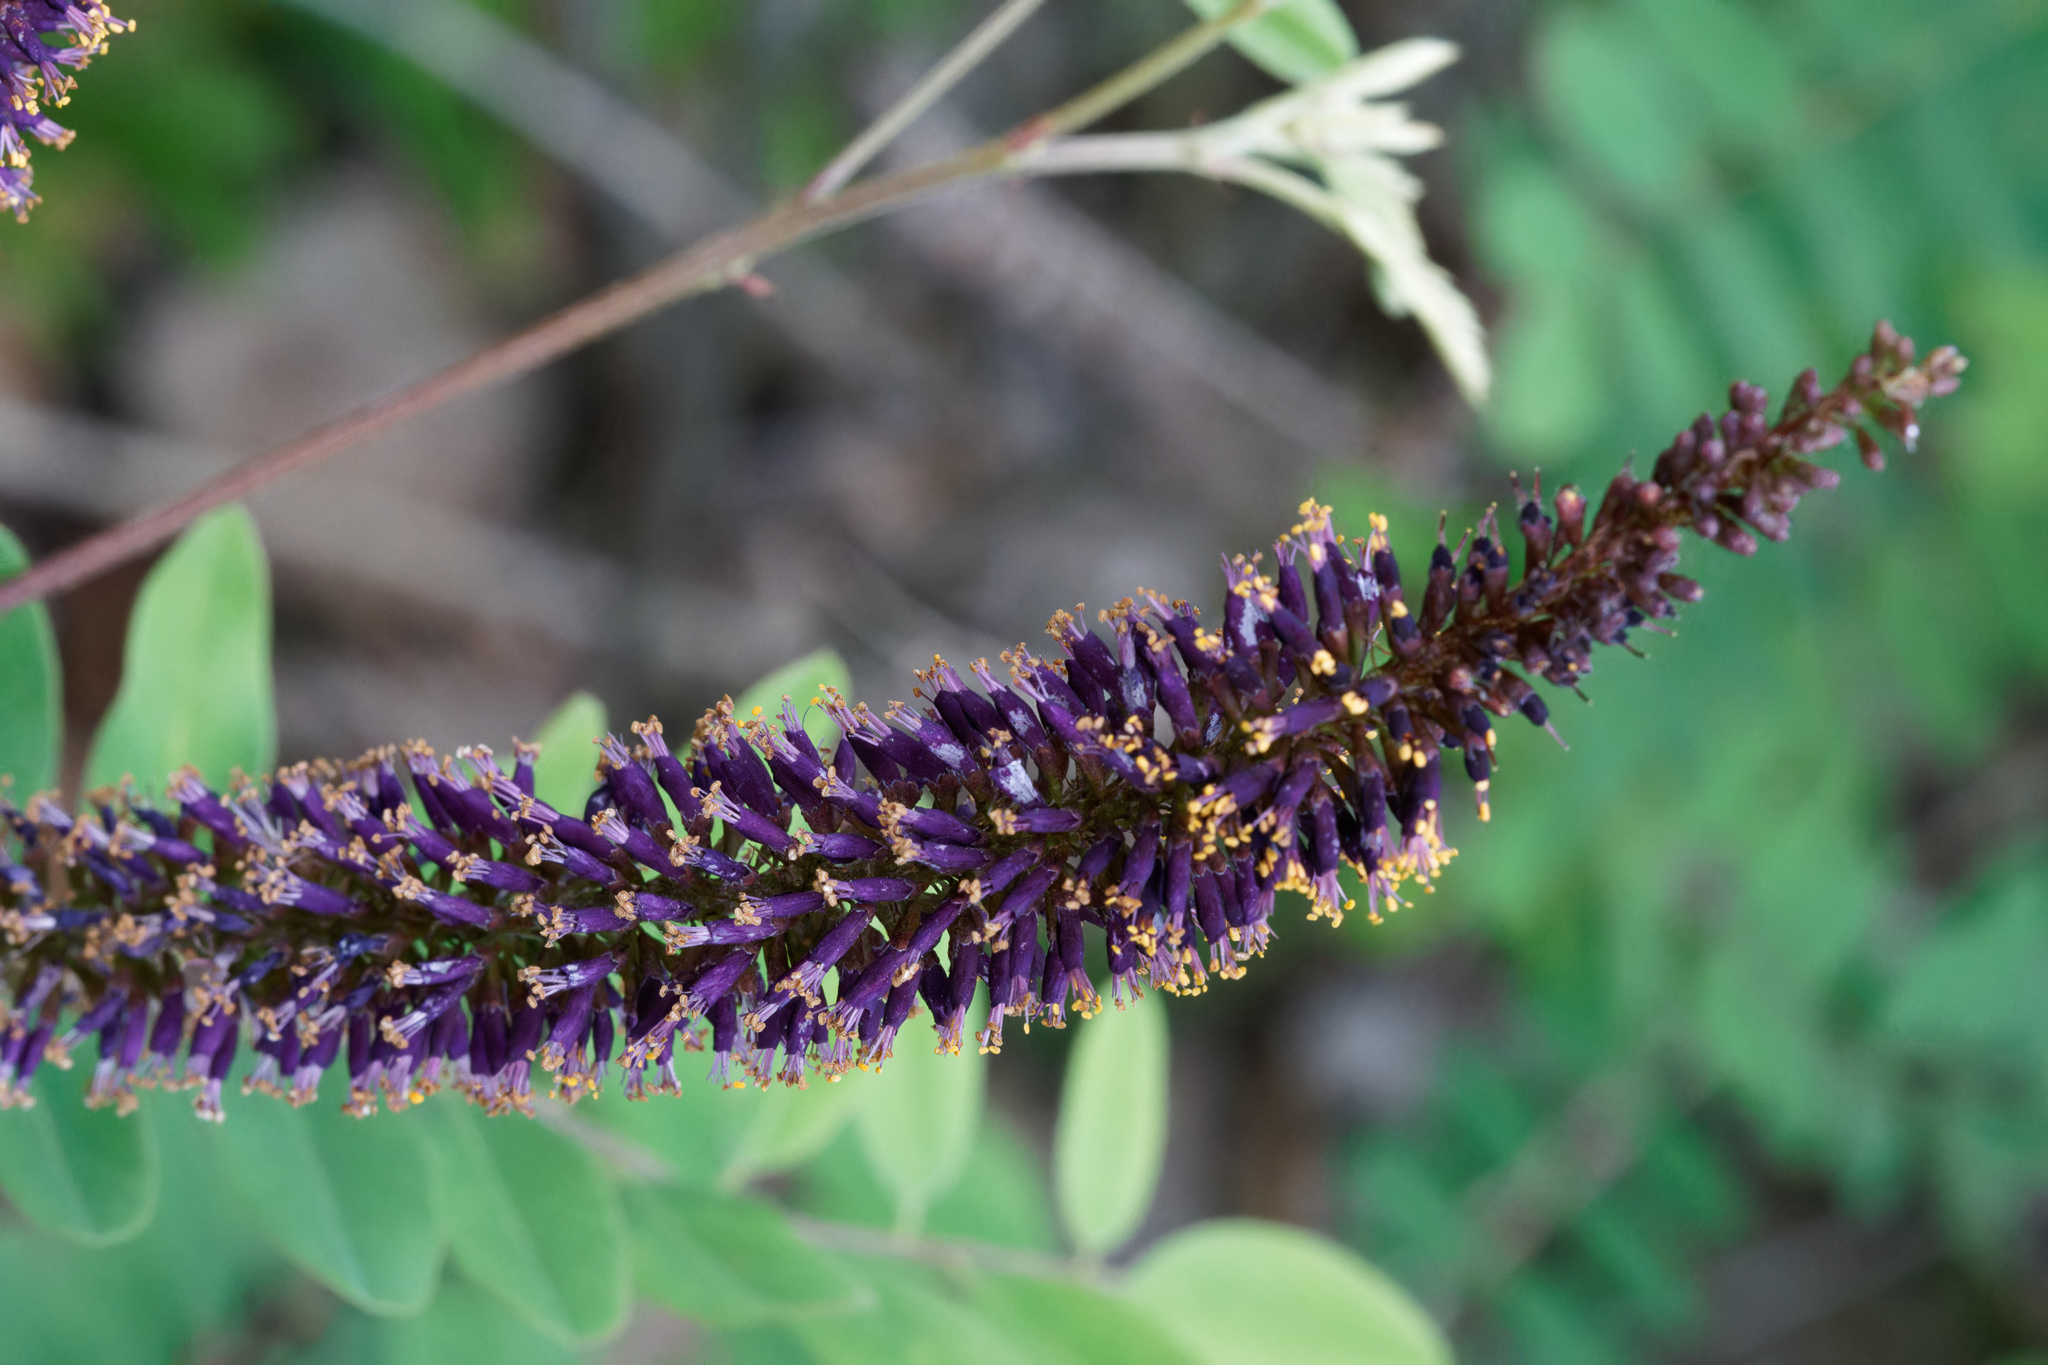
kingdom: Plantae
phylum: Tracheophyta
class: Magnoliopsida
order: Fabales
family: Fabaceae
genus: Amorpha
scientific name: Amorpha fruticosa
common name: False indigo
